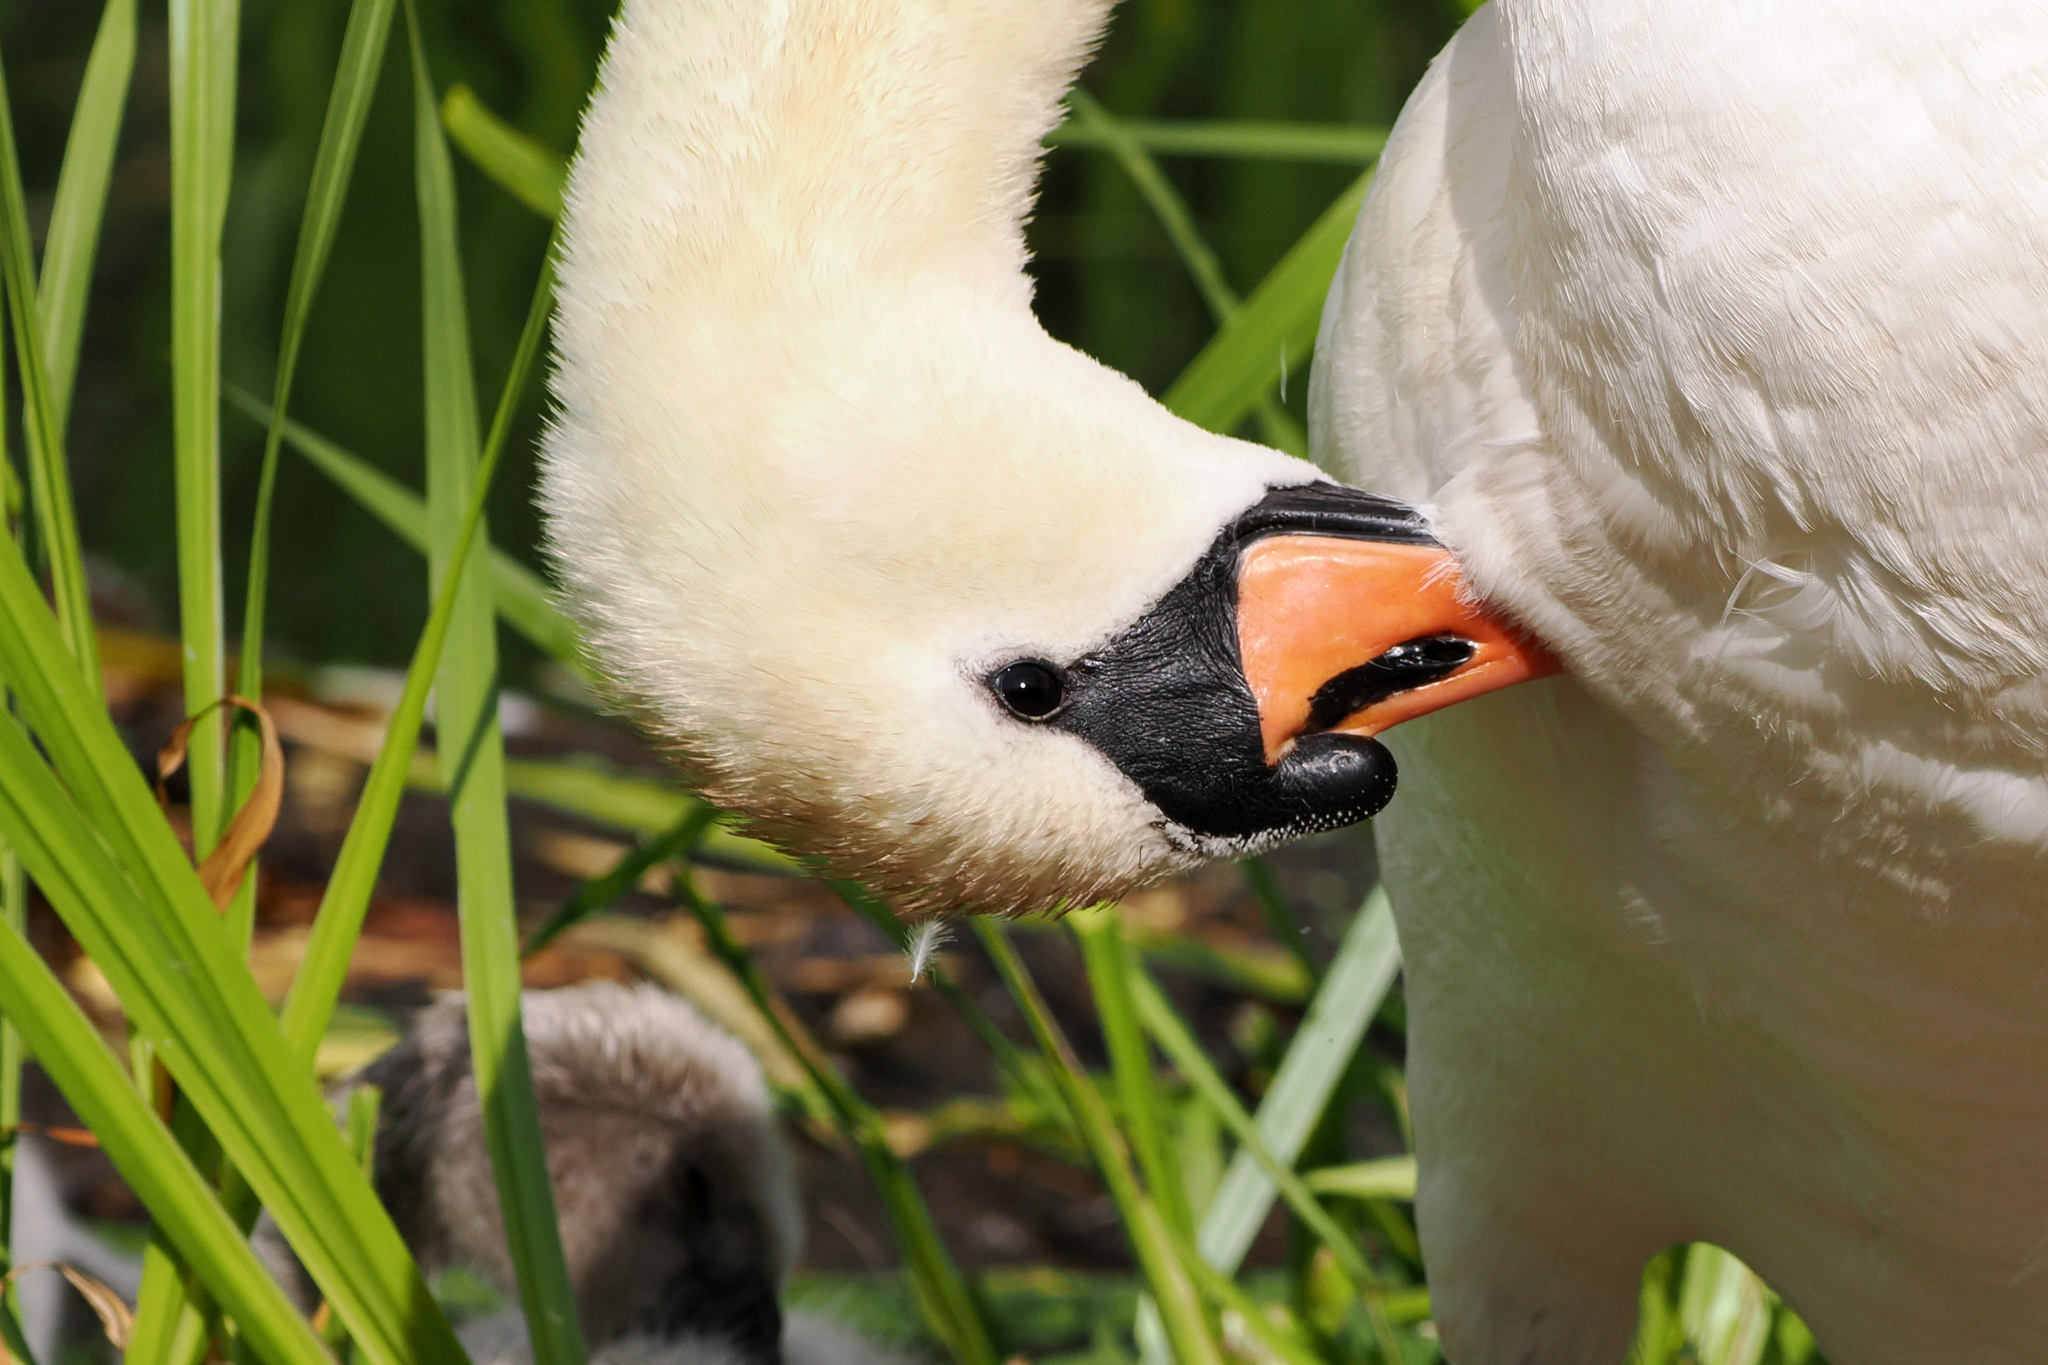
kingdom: Animalia
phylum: Chordata
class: Aves
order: Anseriformes
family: Anatidae
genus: Cygnus
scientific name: Cygnus olor
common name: Mute swan
